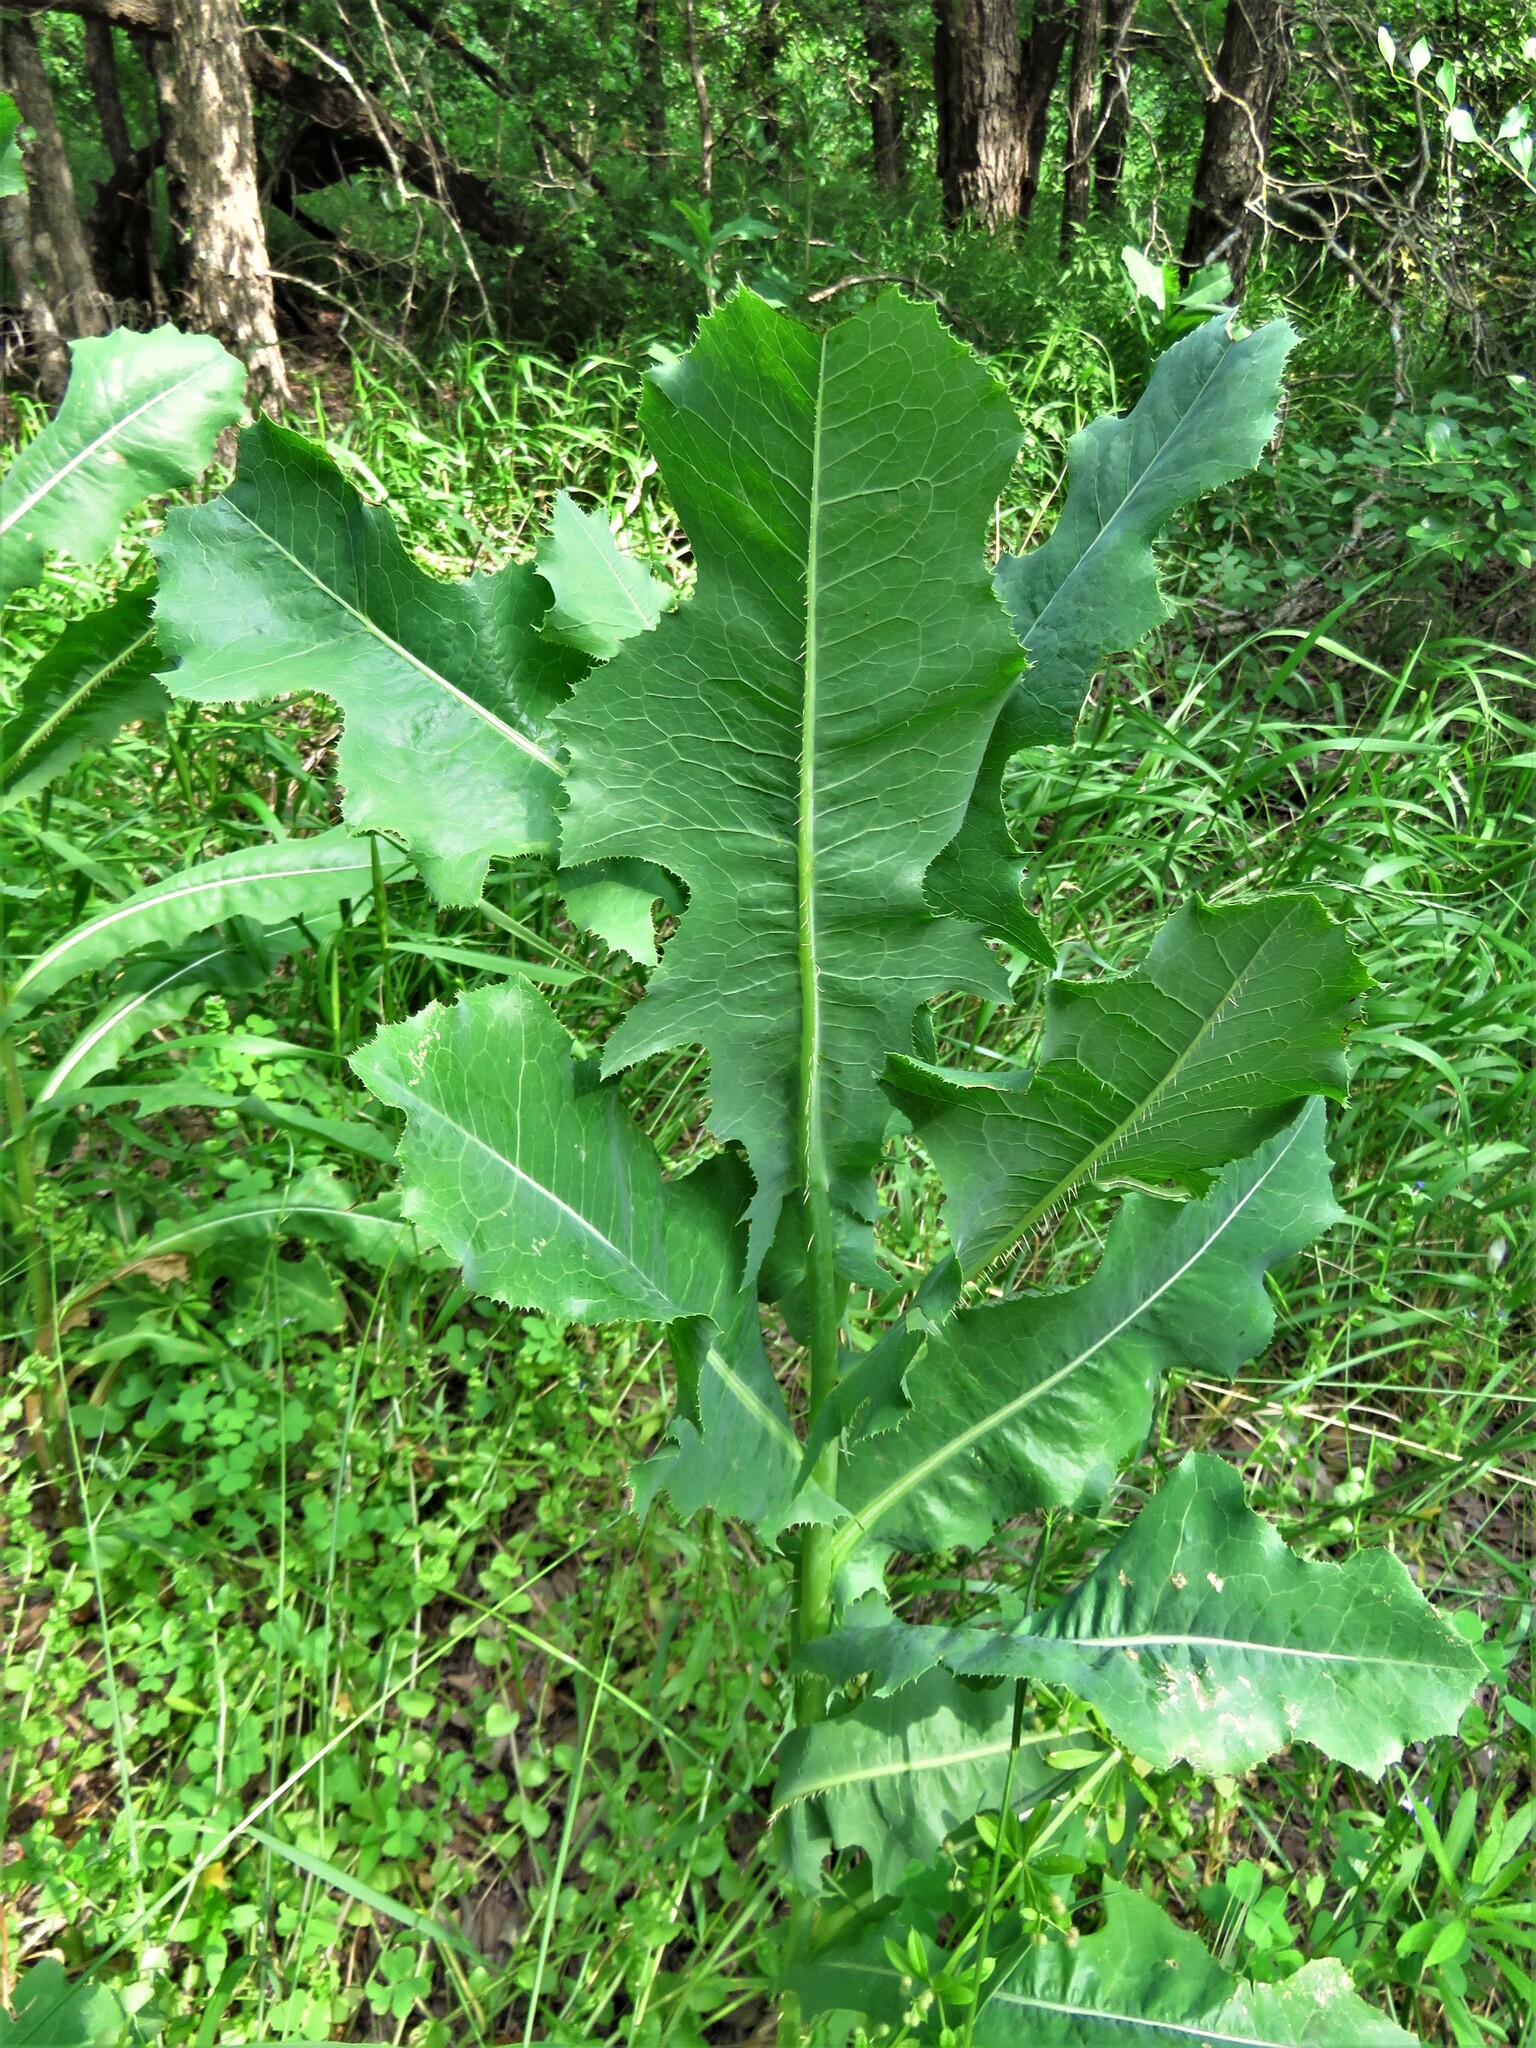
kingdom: Plantae
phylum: Tracheophyta
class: Magnoliopsida
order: Asterales
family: Asteraceae
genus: Lactuca
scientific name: Lactuca serriola
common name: Prickly lettuce
